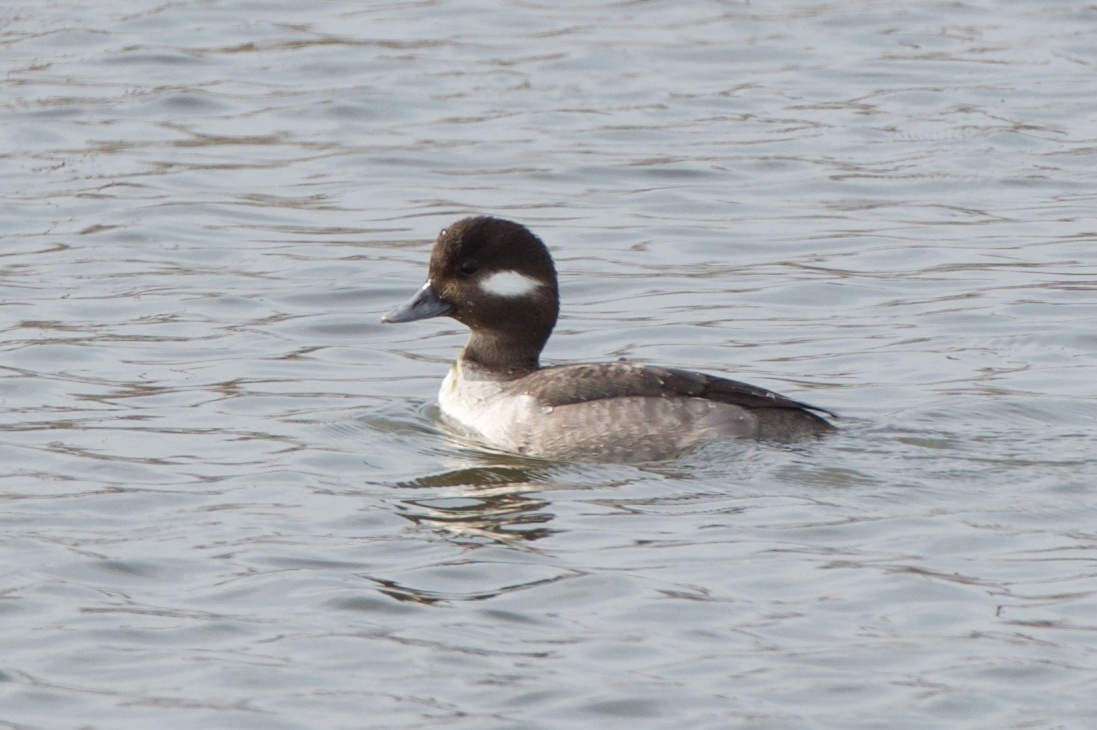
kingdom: Animalia
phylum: Chordata
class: Aves
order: Anseriformes
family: Anatidae
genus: Bucephala
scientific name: Bucephala albeola
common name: Bufflehead
